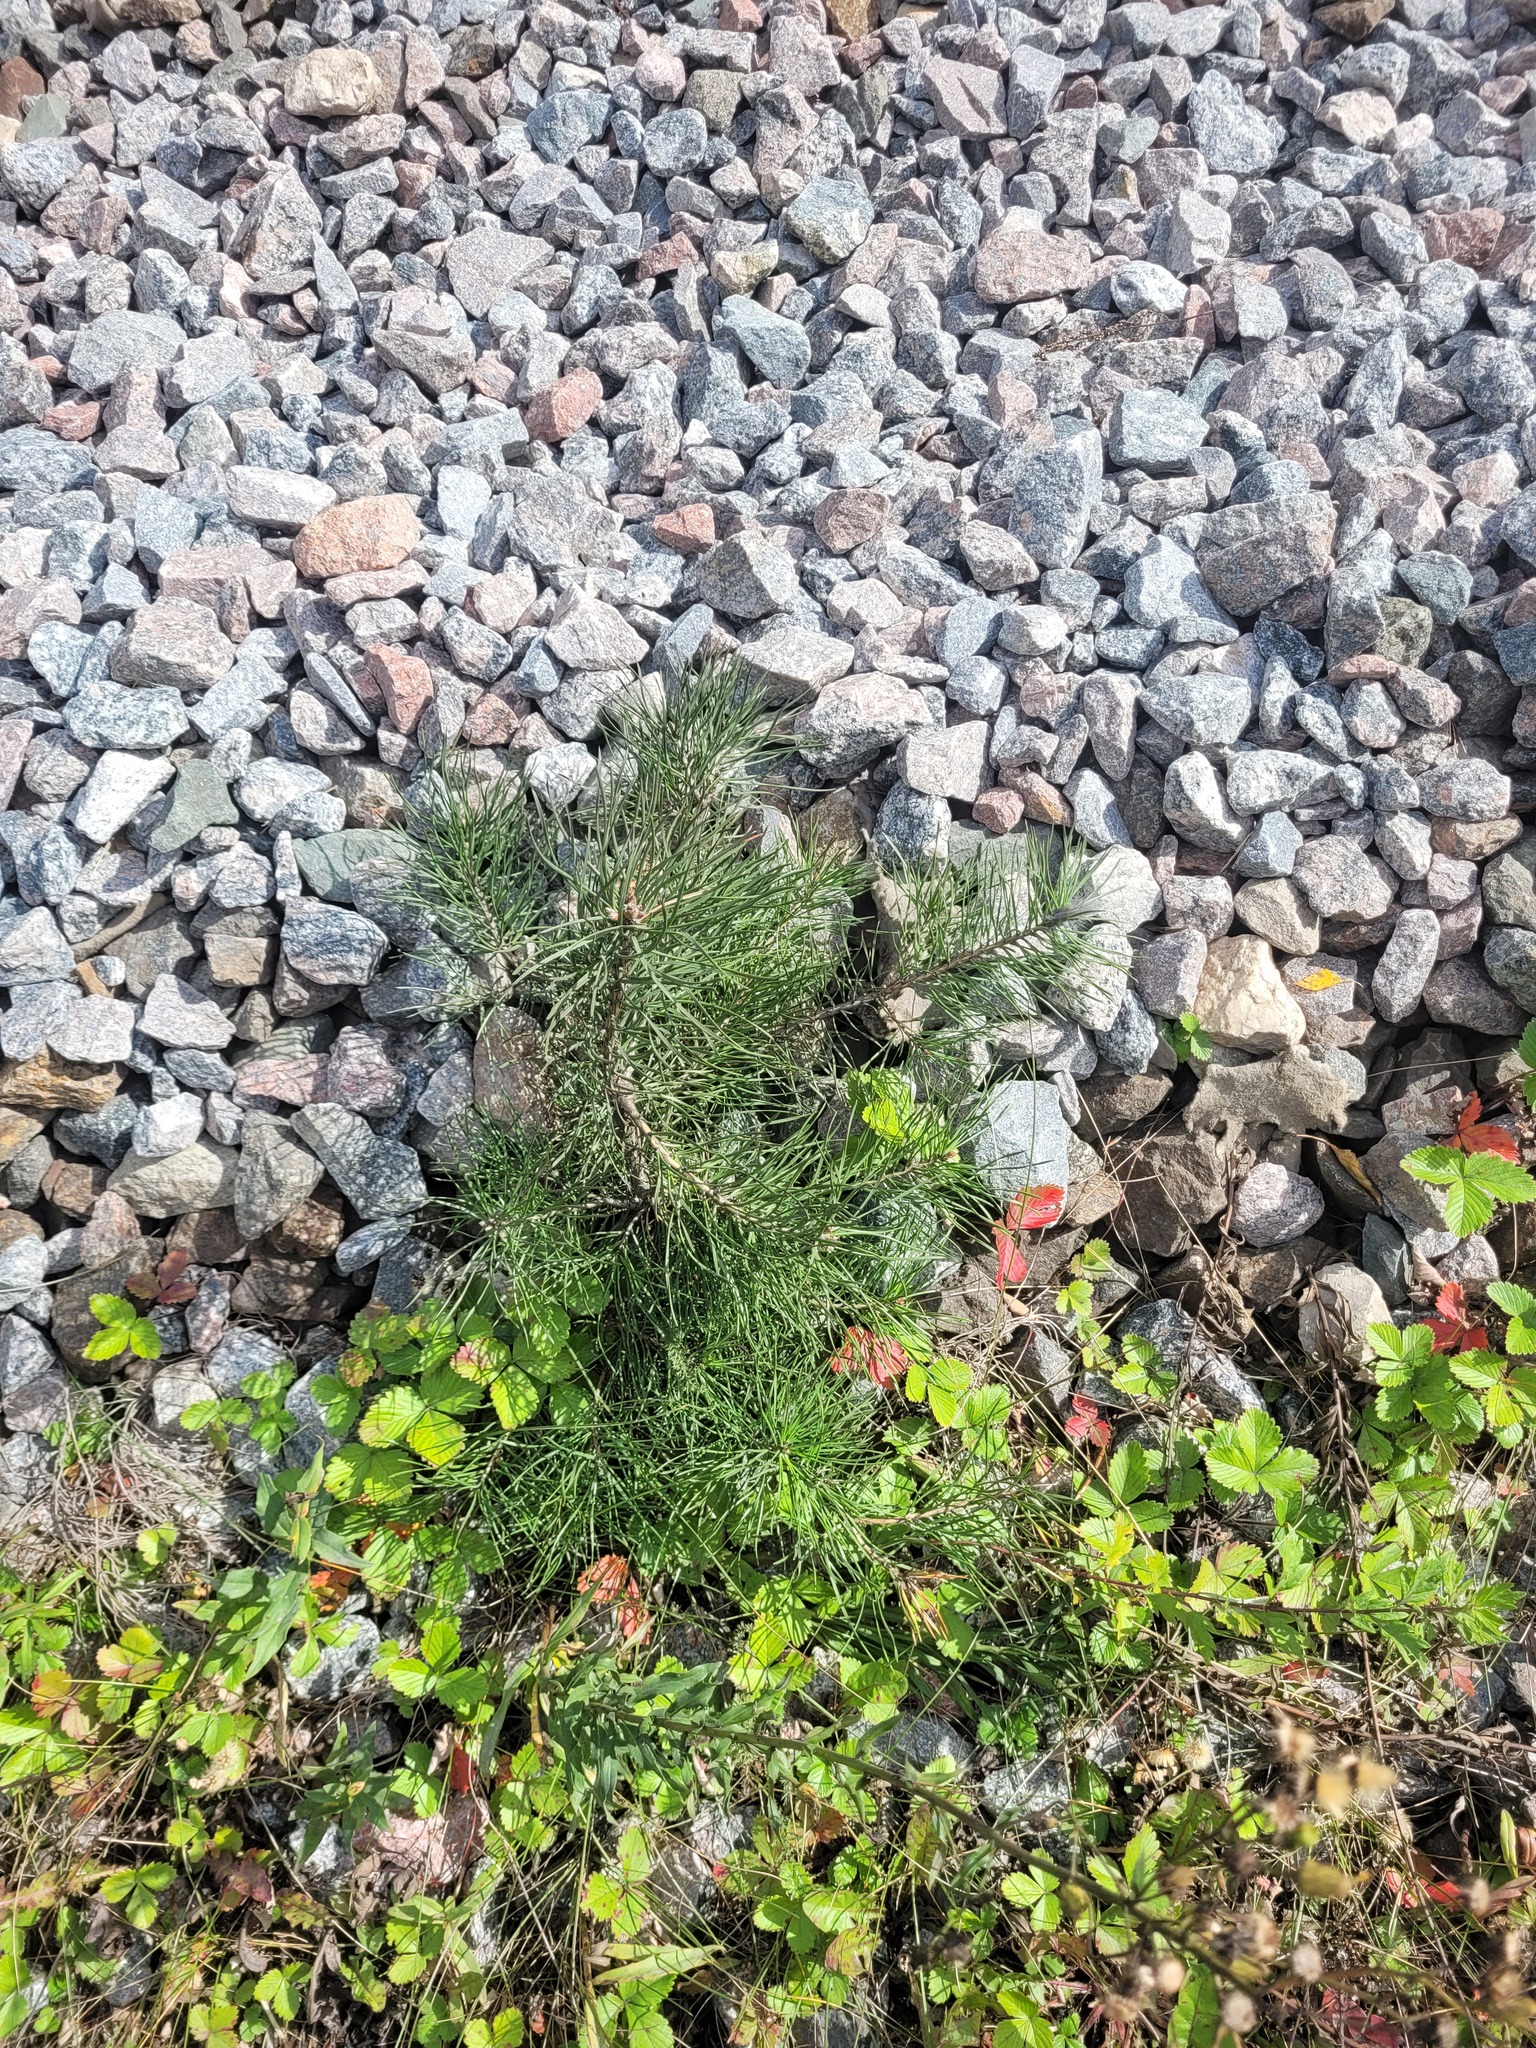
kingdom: Plantae
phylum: Tracheophyta
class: Pinopsida
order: Pinales
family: Pinaceae
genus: Pinus
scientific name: Pinus sylvestris
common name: Scots pine
